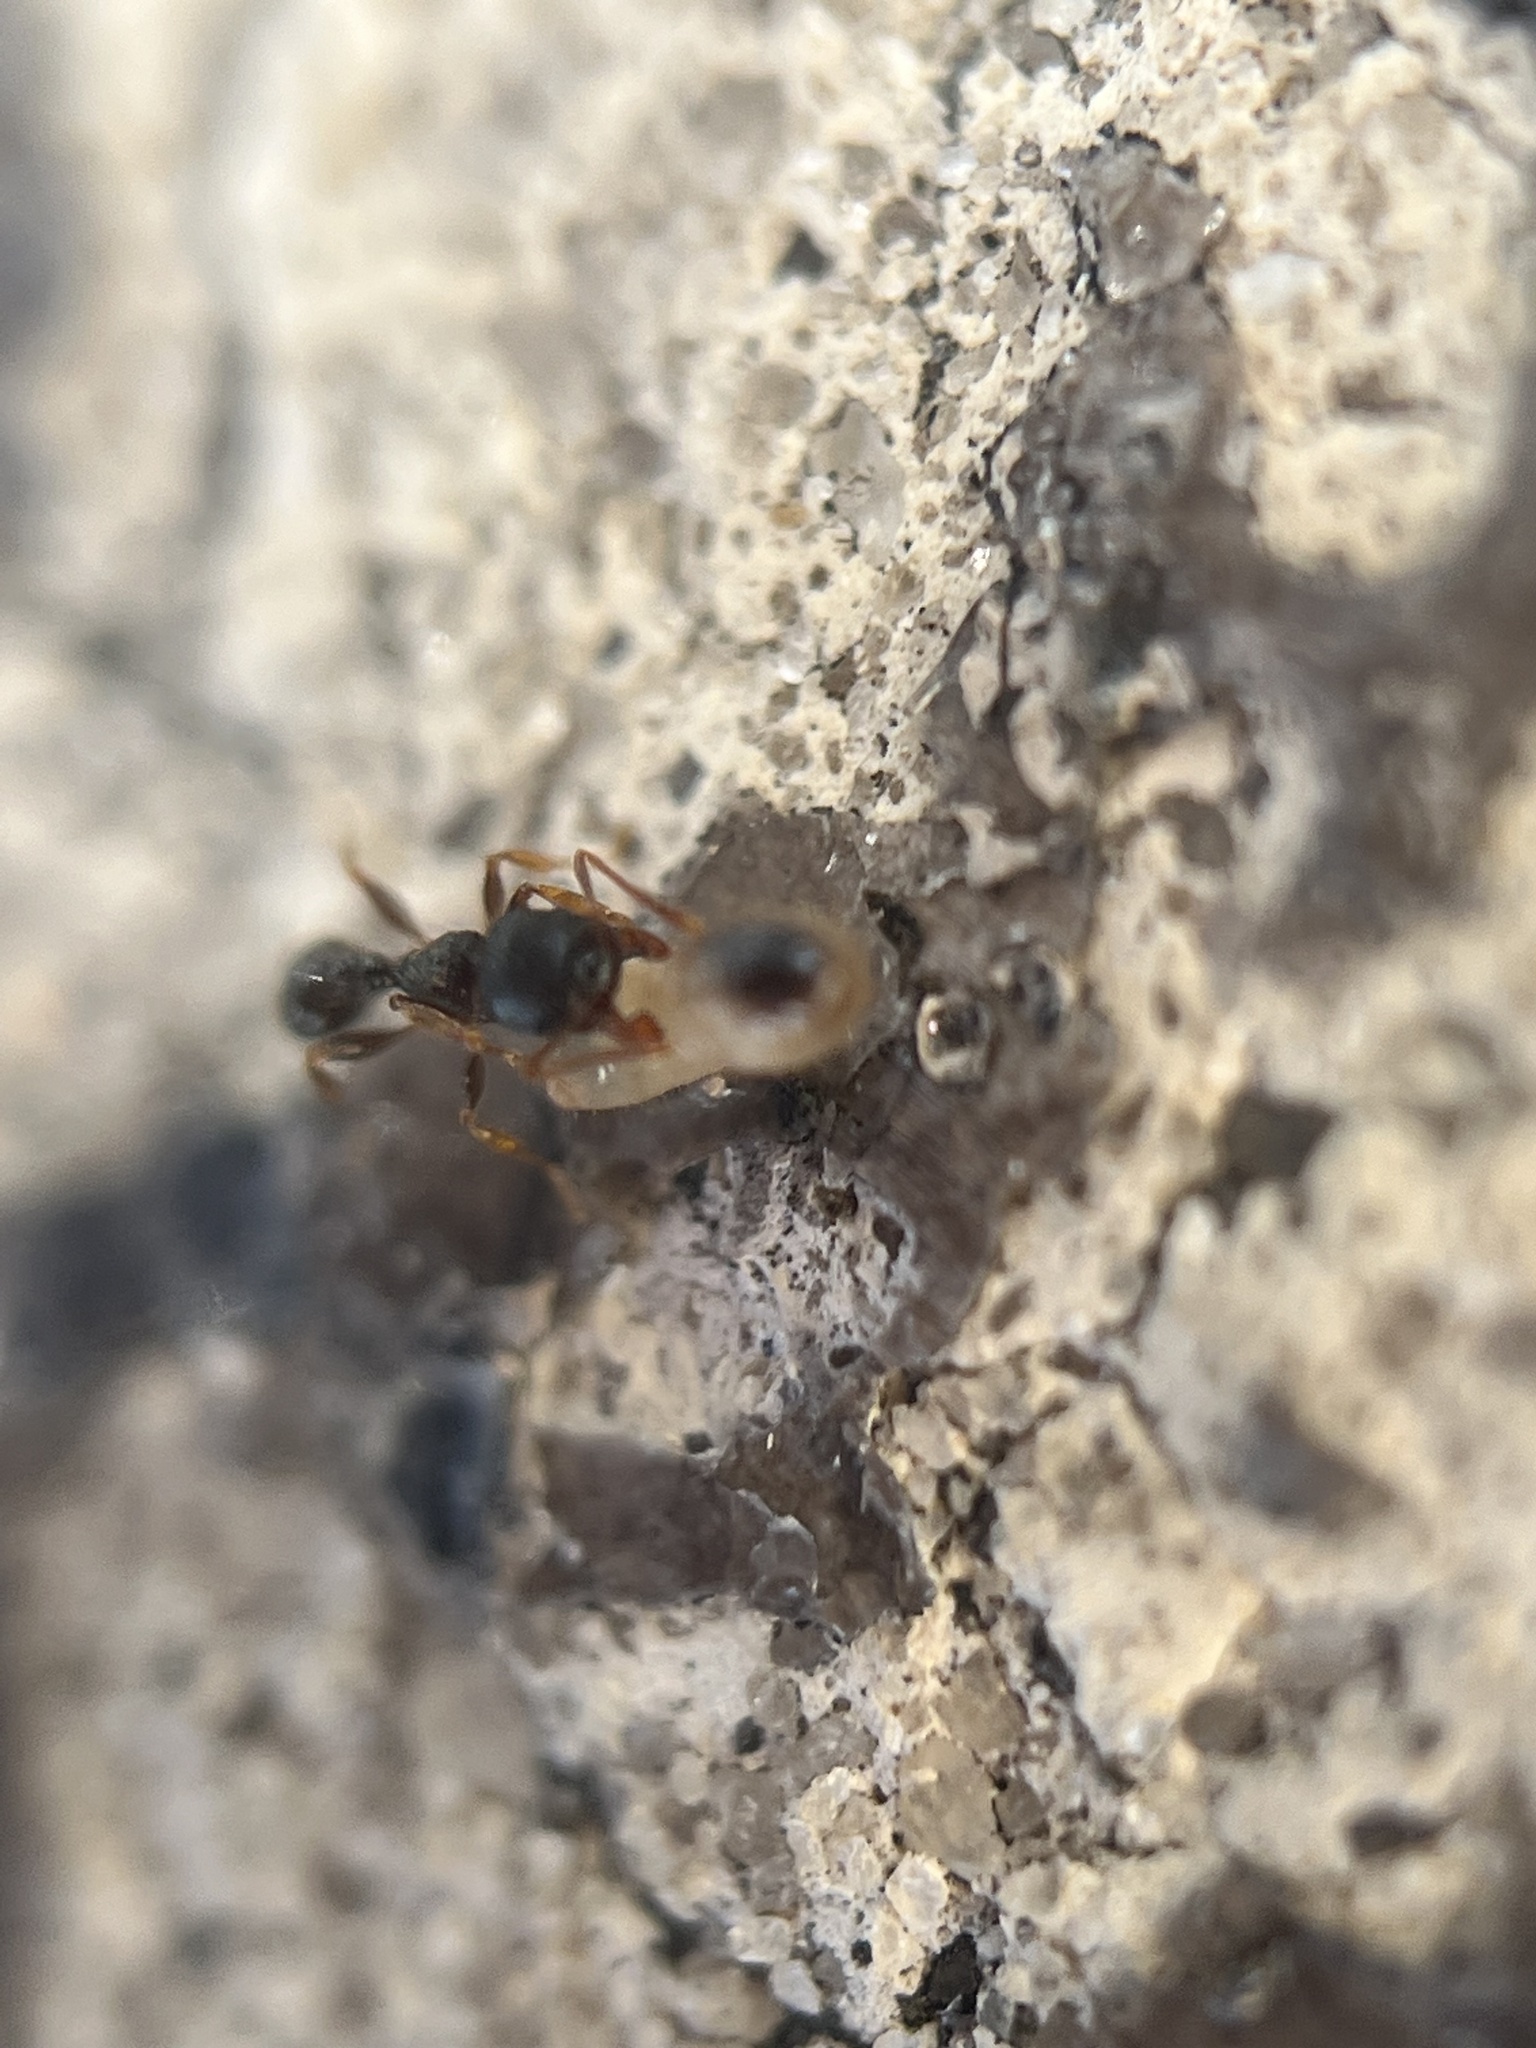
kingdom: Animalia
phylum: Arthropoda
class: Insecta
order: Hymenoptera
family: Formicidae
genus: Tetramorium
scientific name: Tetramorium immigrans
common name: Pavement ant
